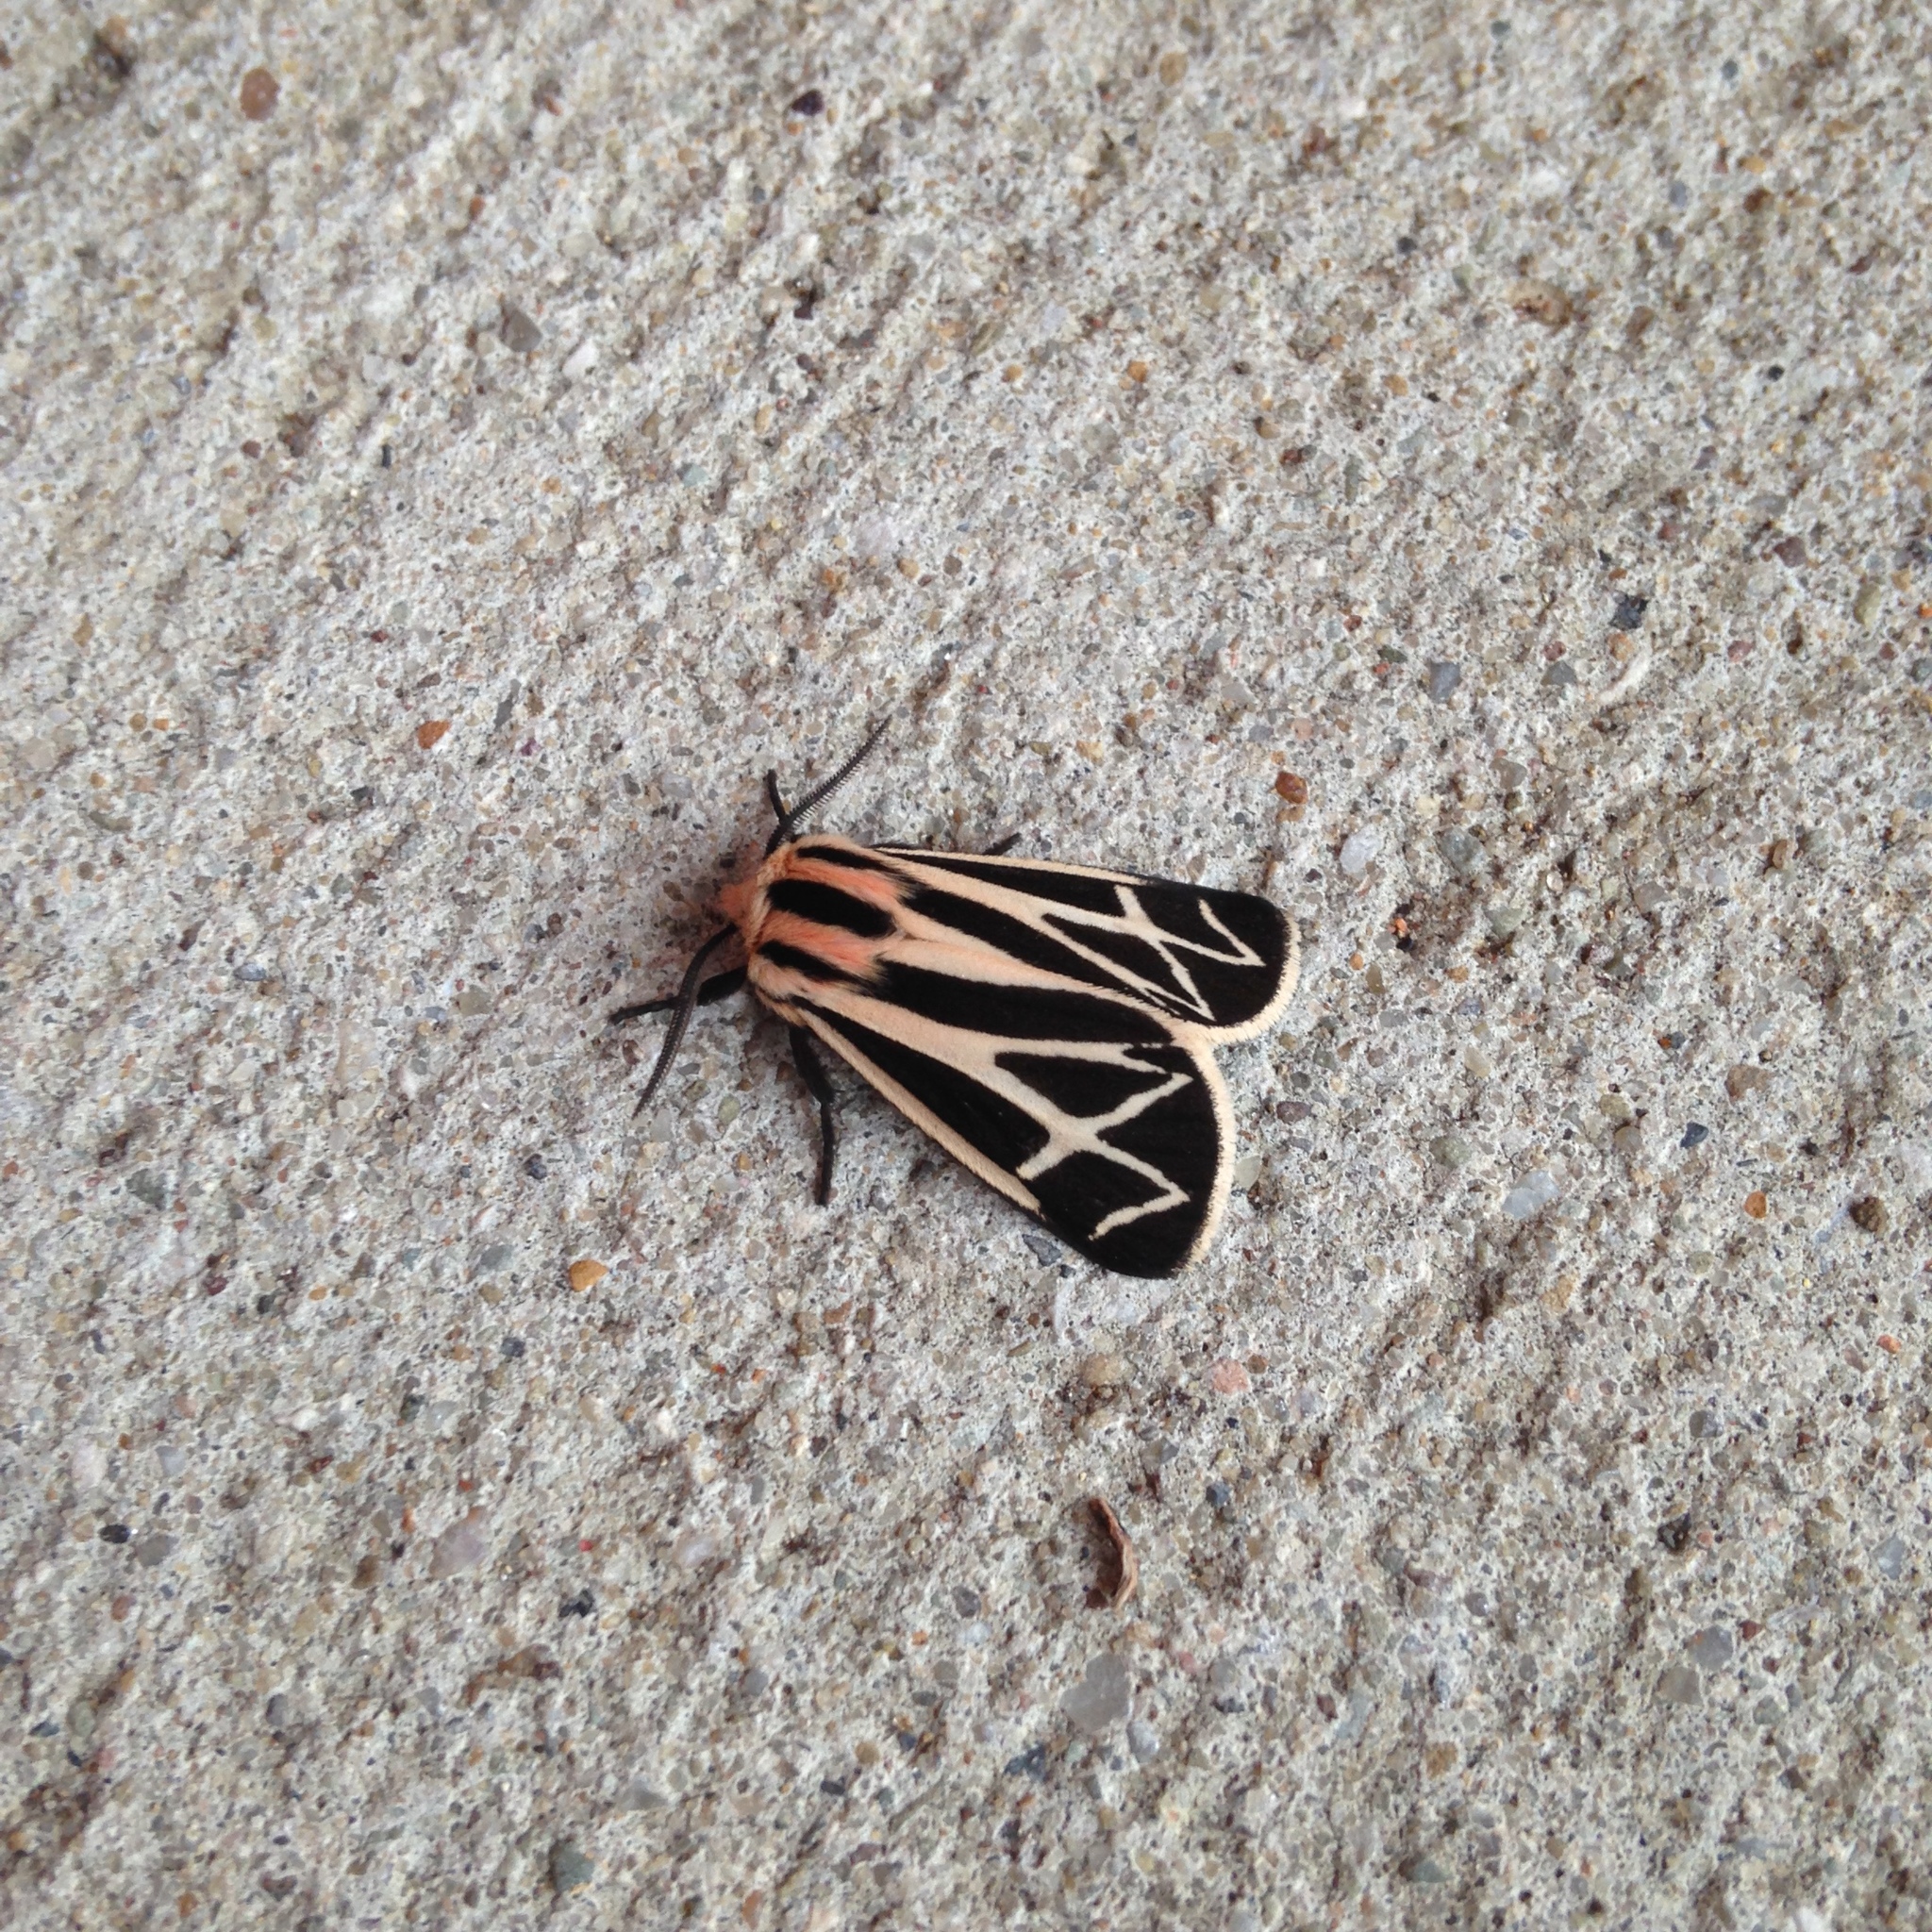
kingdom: Animalia
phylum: Arthropoda
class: Insecta
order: Lepidoptera
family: Erebidae
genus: Apantesis
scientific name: Apantesis phalerata
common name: Harnessed tiger moth
